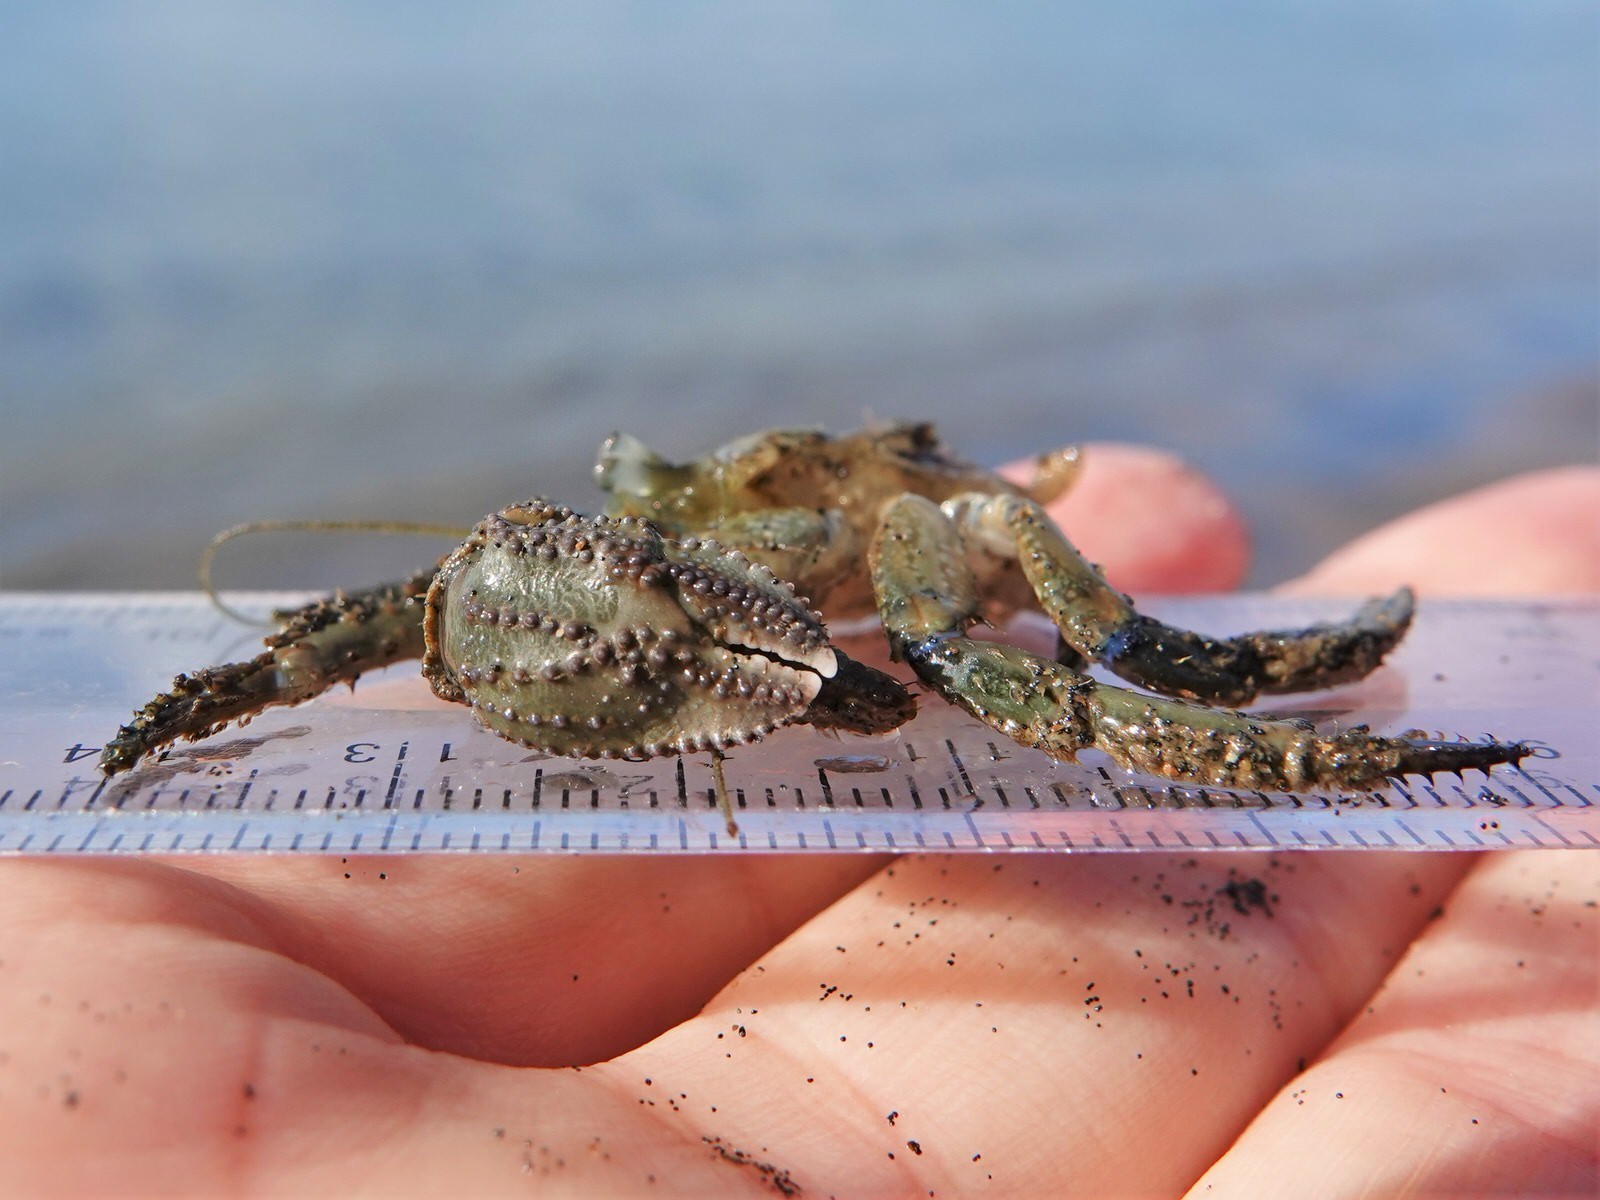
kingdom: Animalia
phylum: Arthropoda
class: Malacostraca
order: Decapoda
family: Paguridae
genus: Pagurus
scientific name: Pagurus novizealandiae
